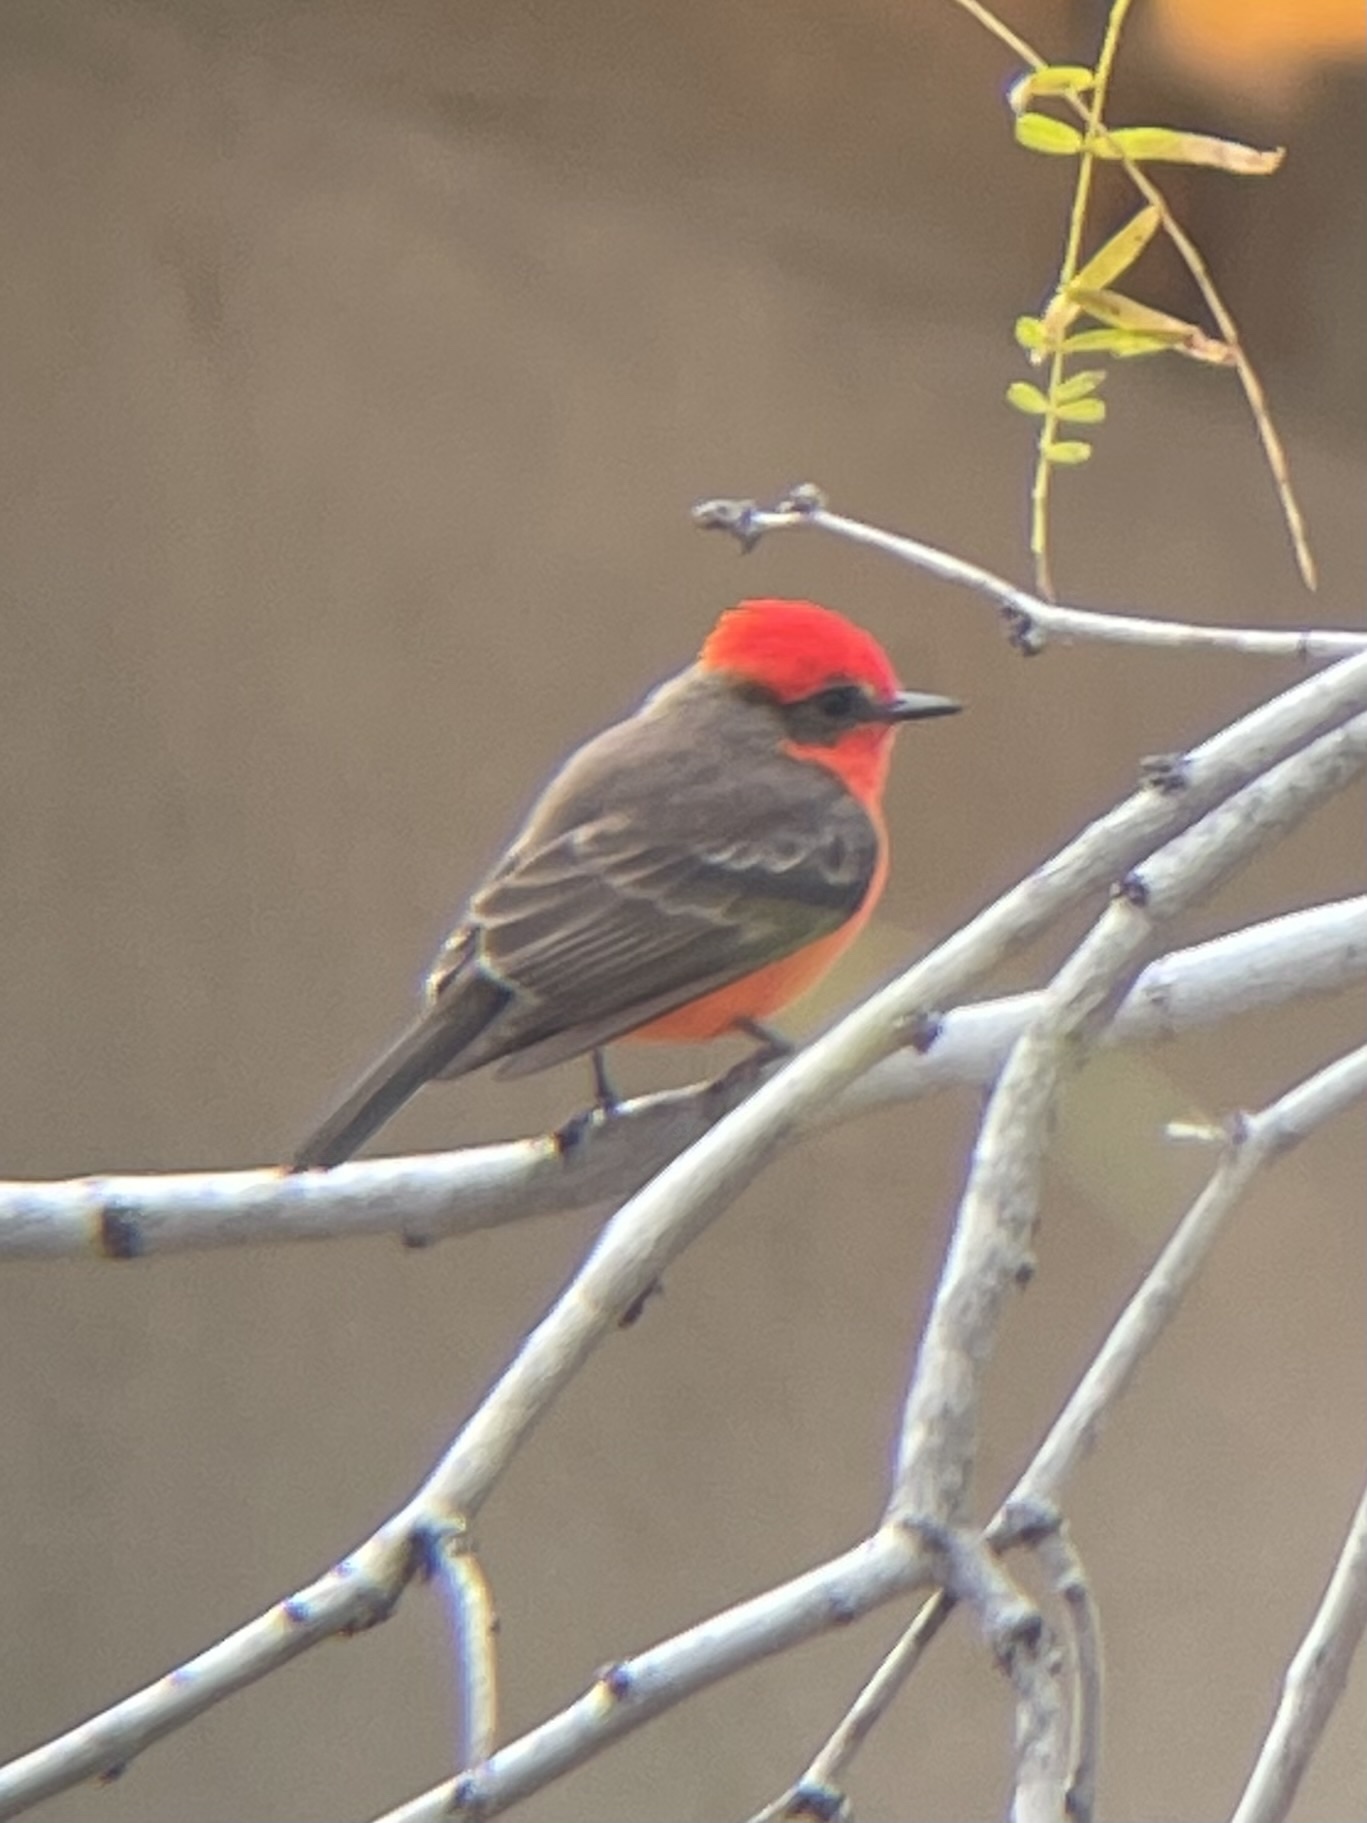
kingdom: Animalia
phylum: Chordata
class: Aves
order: Passeriformes
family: Tyrannidae
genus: Pyrocephalus
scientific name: Pyrocephalus rubinus
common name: Vermilion flycatcher
